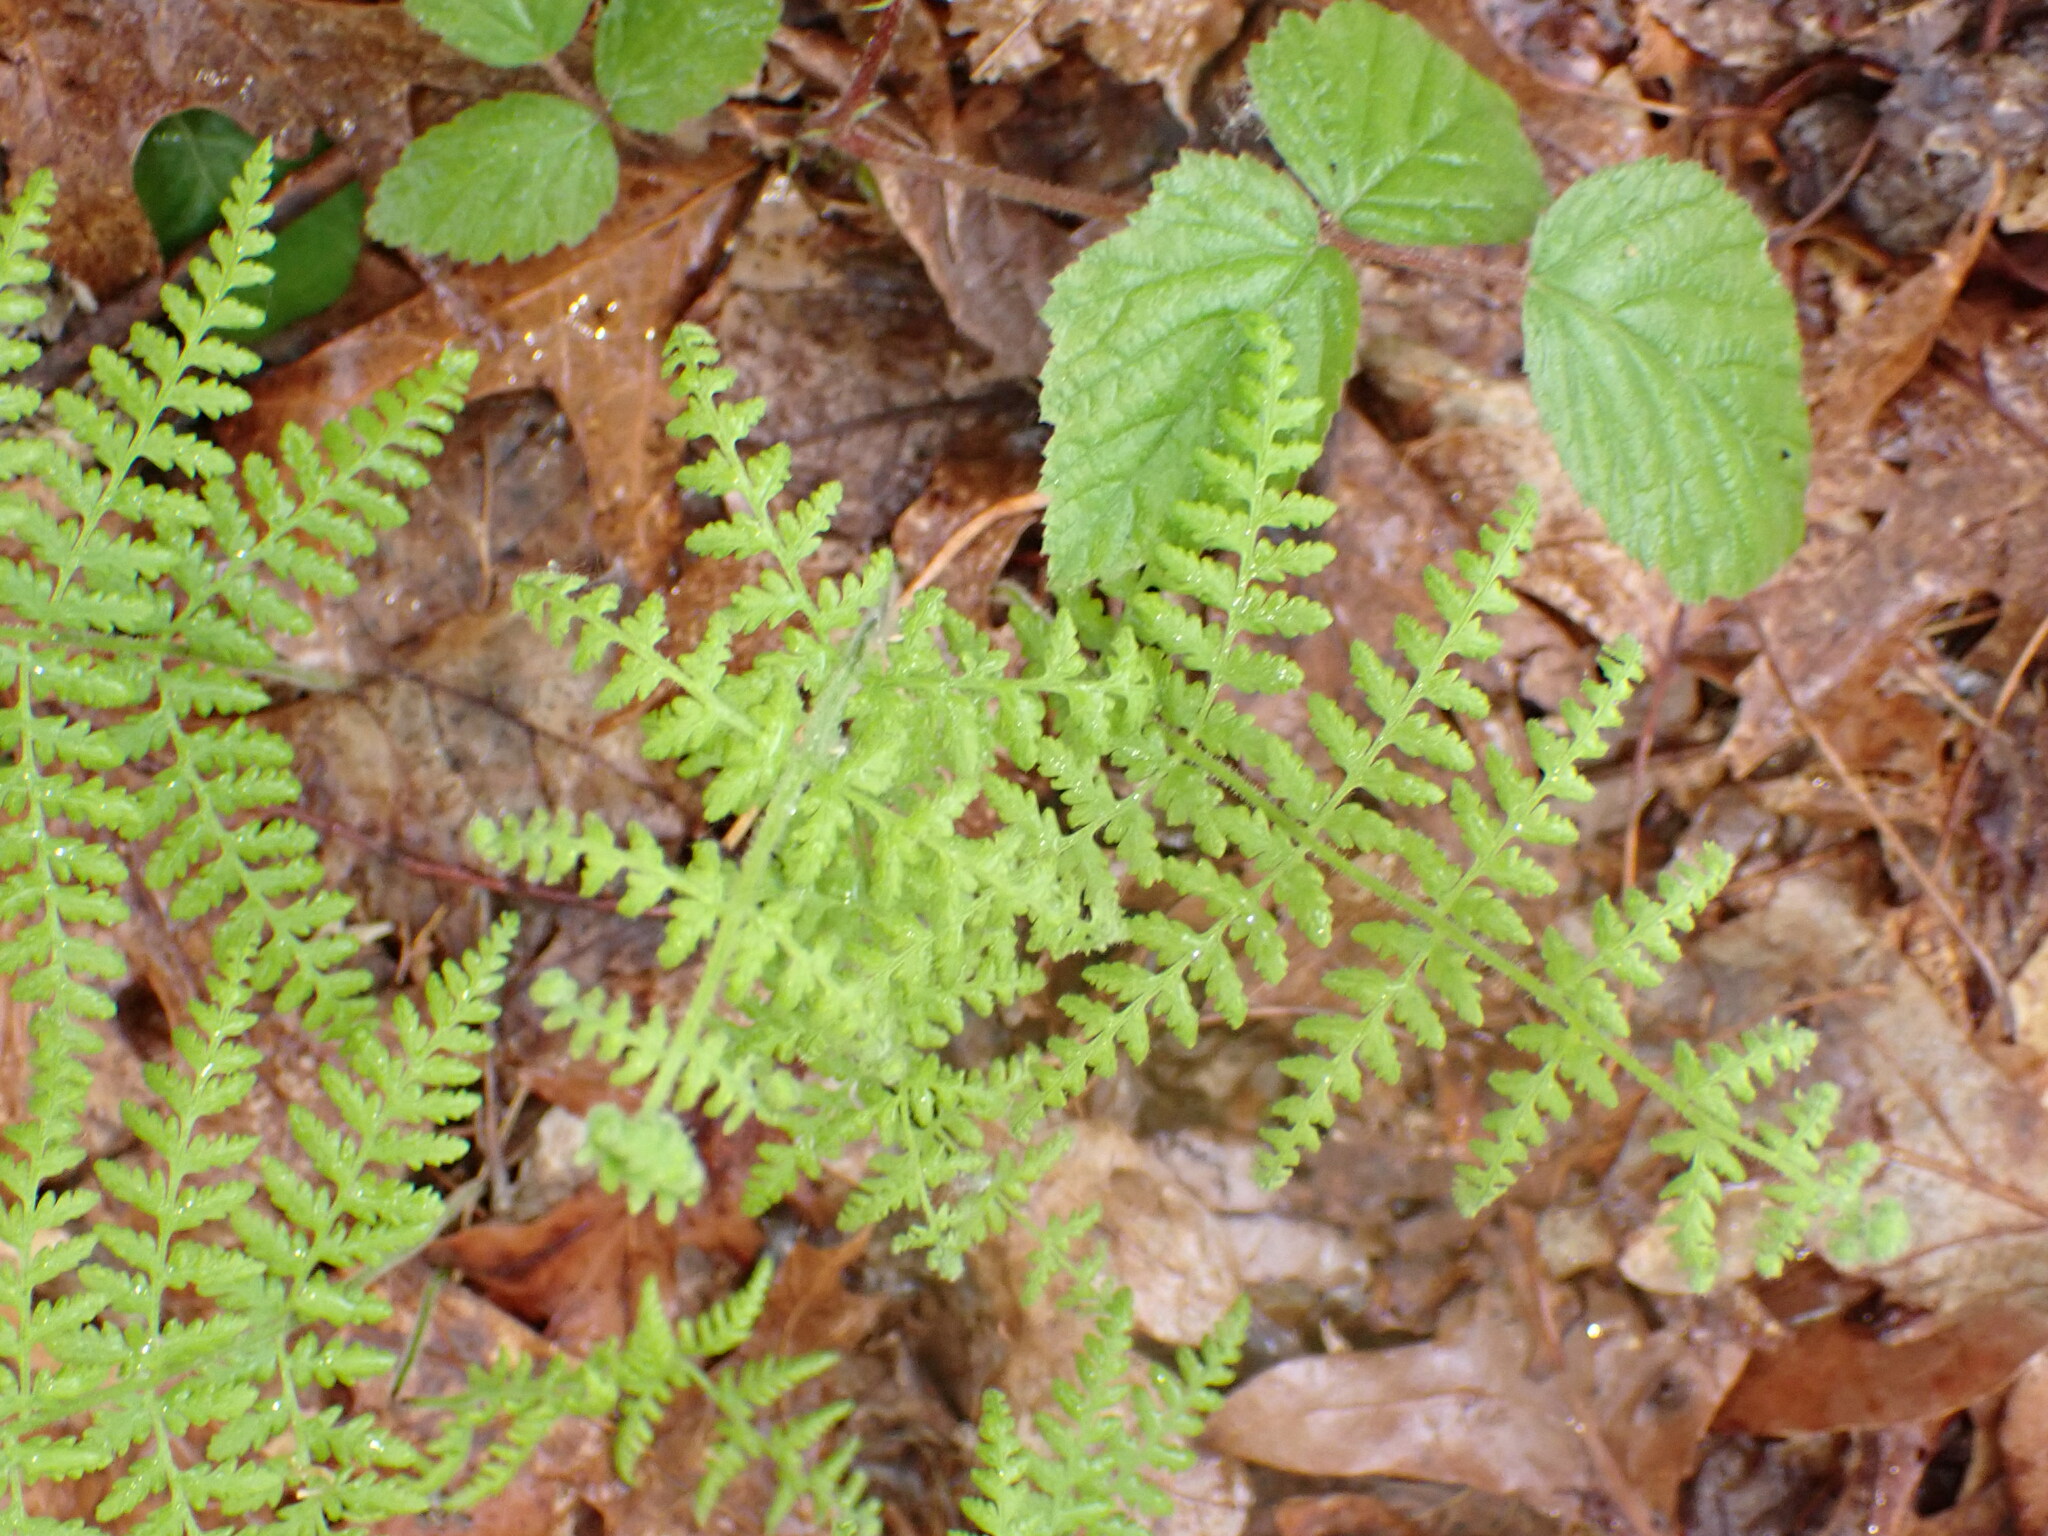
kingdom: Plantae
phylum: Tracheophyta
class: Polypodiopsida
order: Polypodiales
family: Dennstaedtiaceae
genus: Sitobolium
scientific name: Sitobolium punctilobum
